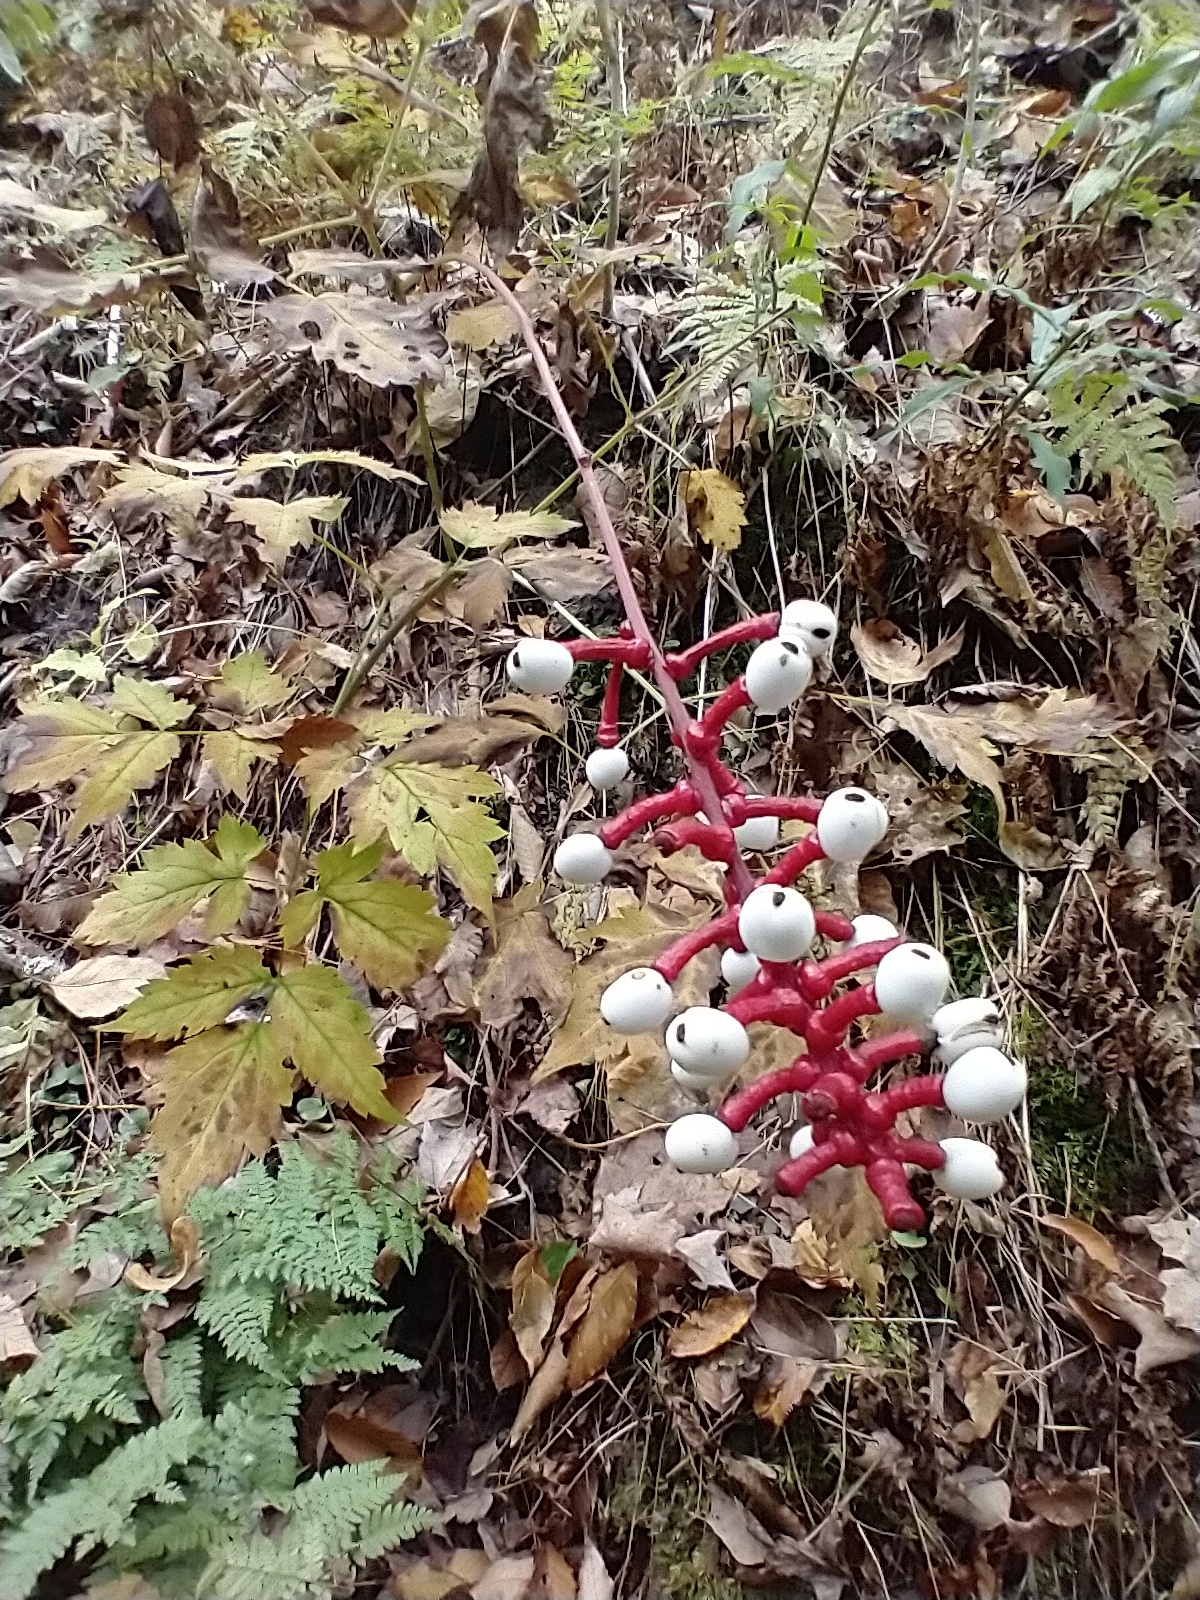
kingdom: Plantae
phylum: Tracheophyta
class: Magnoliopsida
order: Ranunculales
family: Ranunculaceae
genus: Actaea
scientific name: Actaea pachypoda
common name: Doll's-eyes
